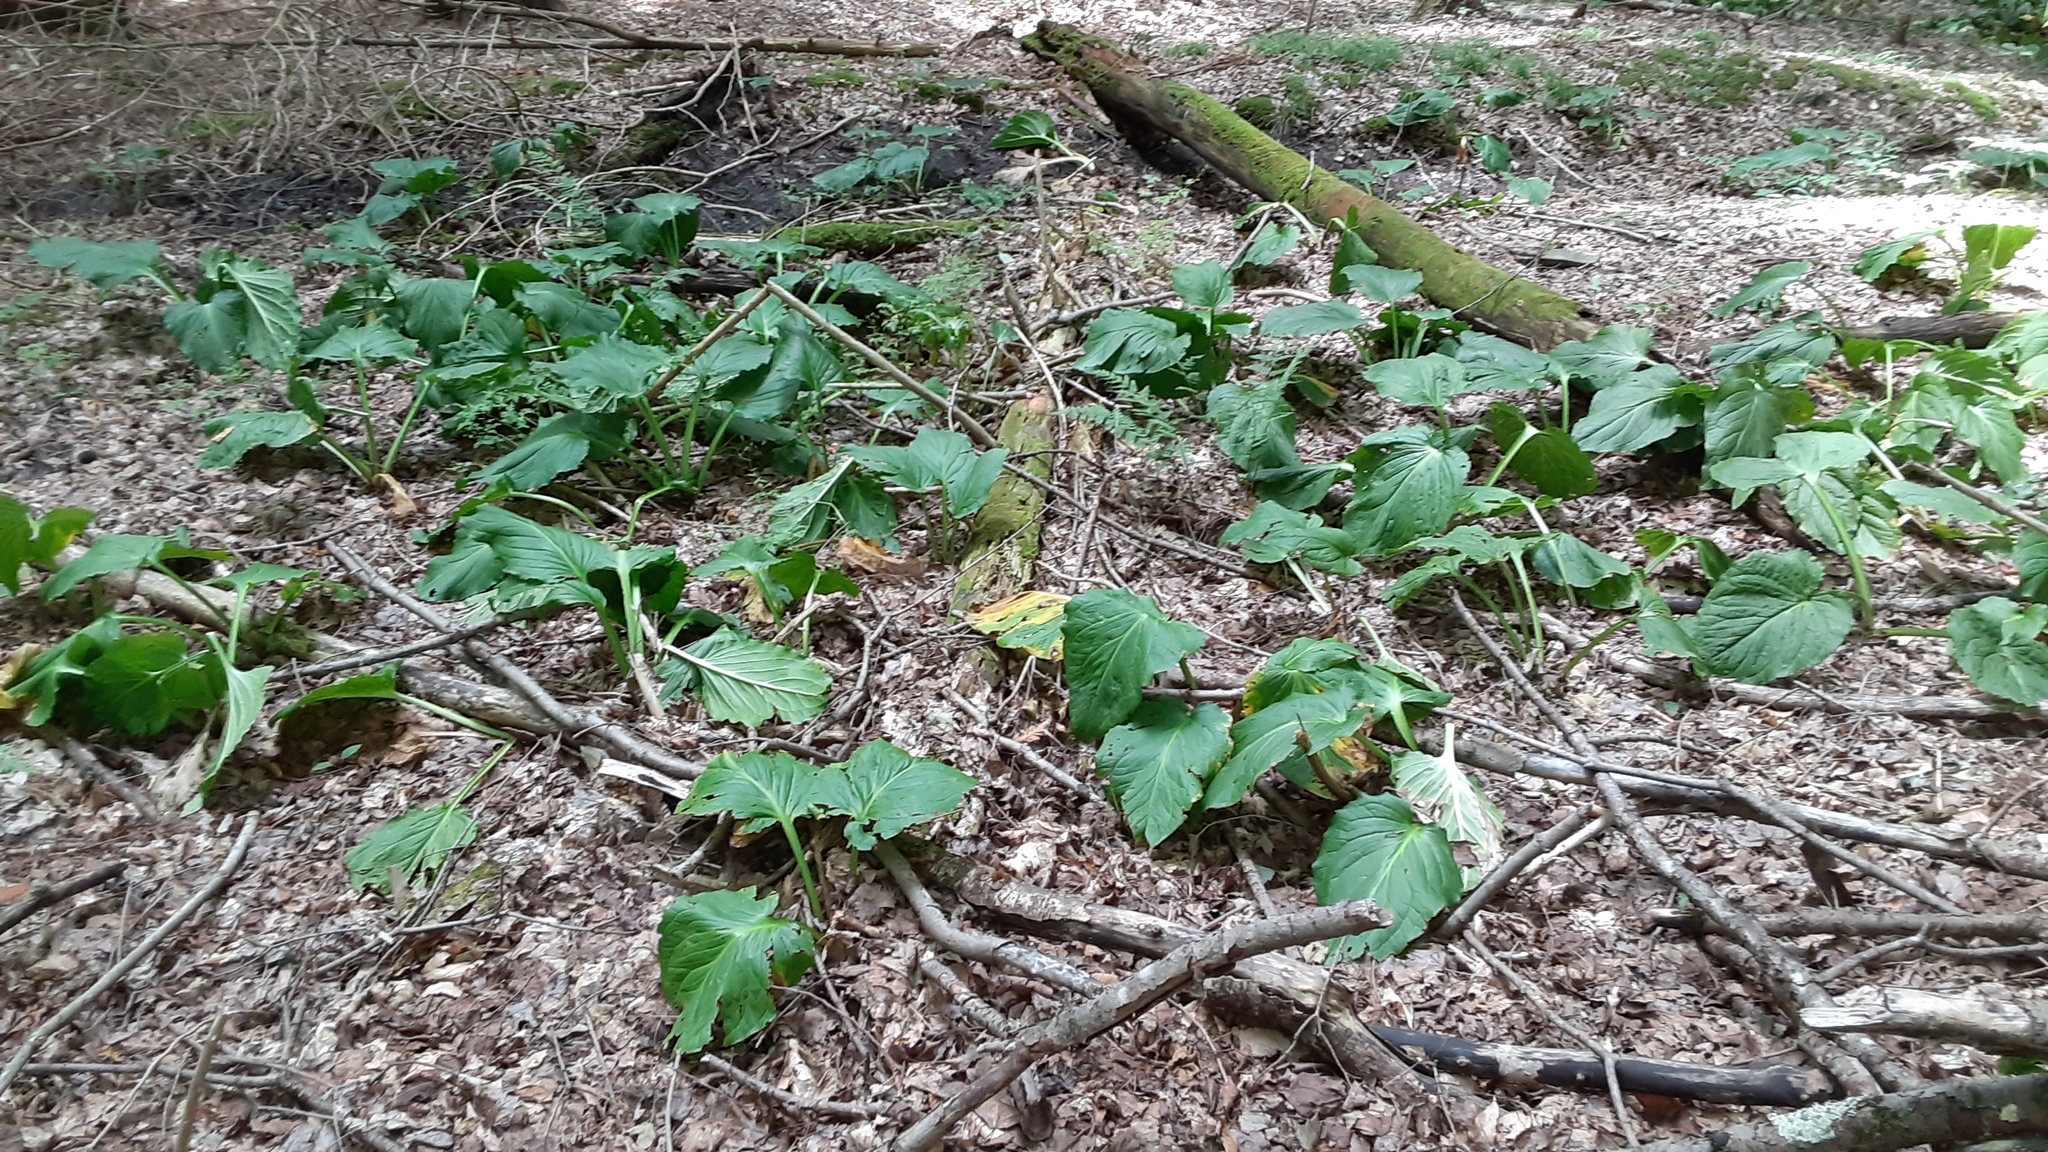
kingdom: Plantae
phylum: Tracheophyta
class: Liliopsida
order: Alismatales
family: Araceae
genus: Symplocarpus
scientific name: Symplocarpus foetidus
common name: Eastern skunk cabbage
